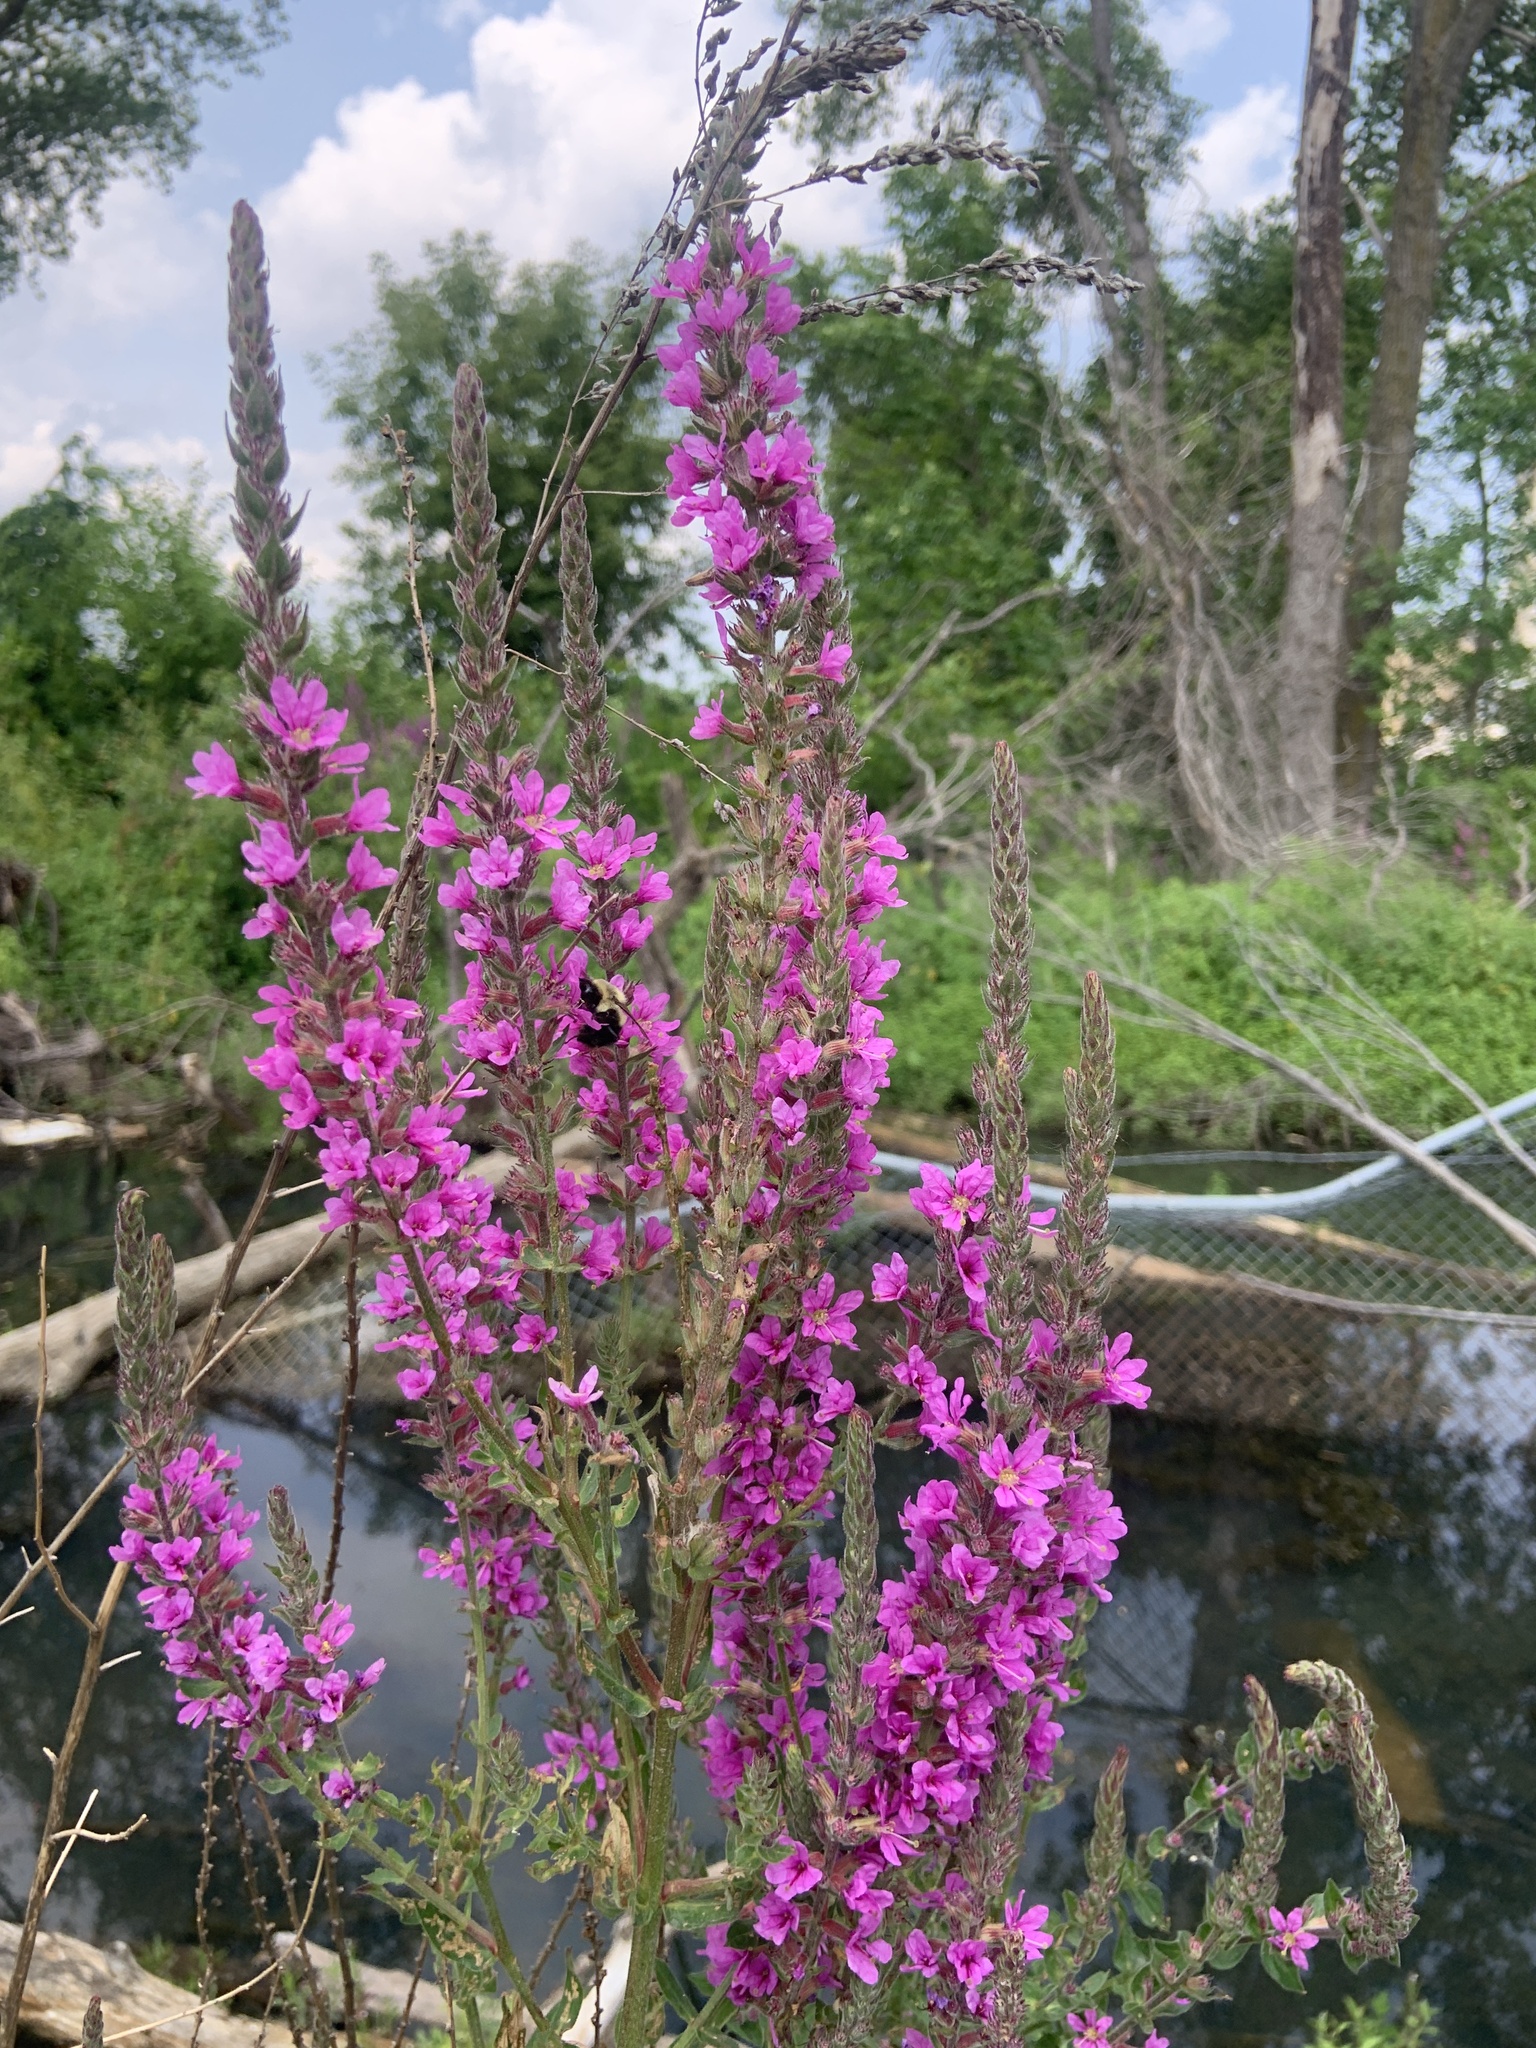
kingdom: Animalia
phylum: Arthropoda
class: Insecta
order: Hymenoptera
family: Apidae
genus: Bombus
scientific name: Bombus impatiens
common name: Common eastern bumble bee
